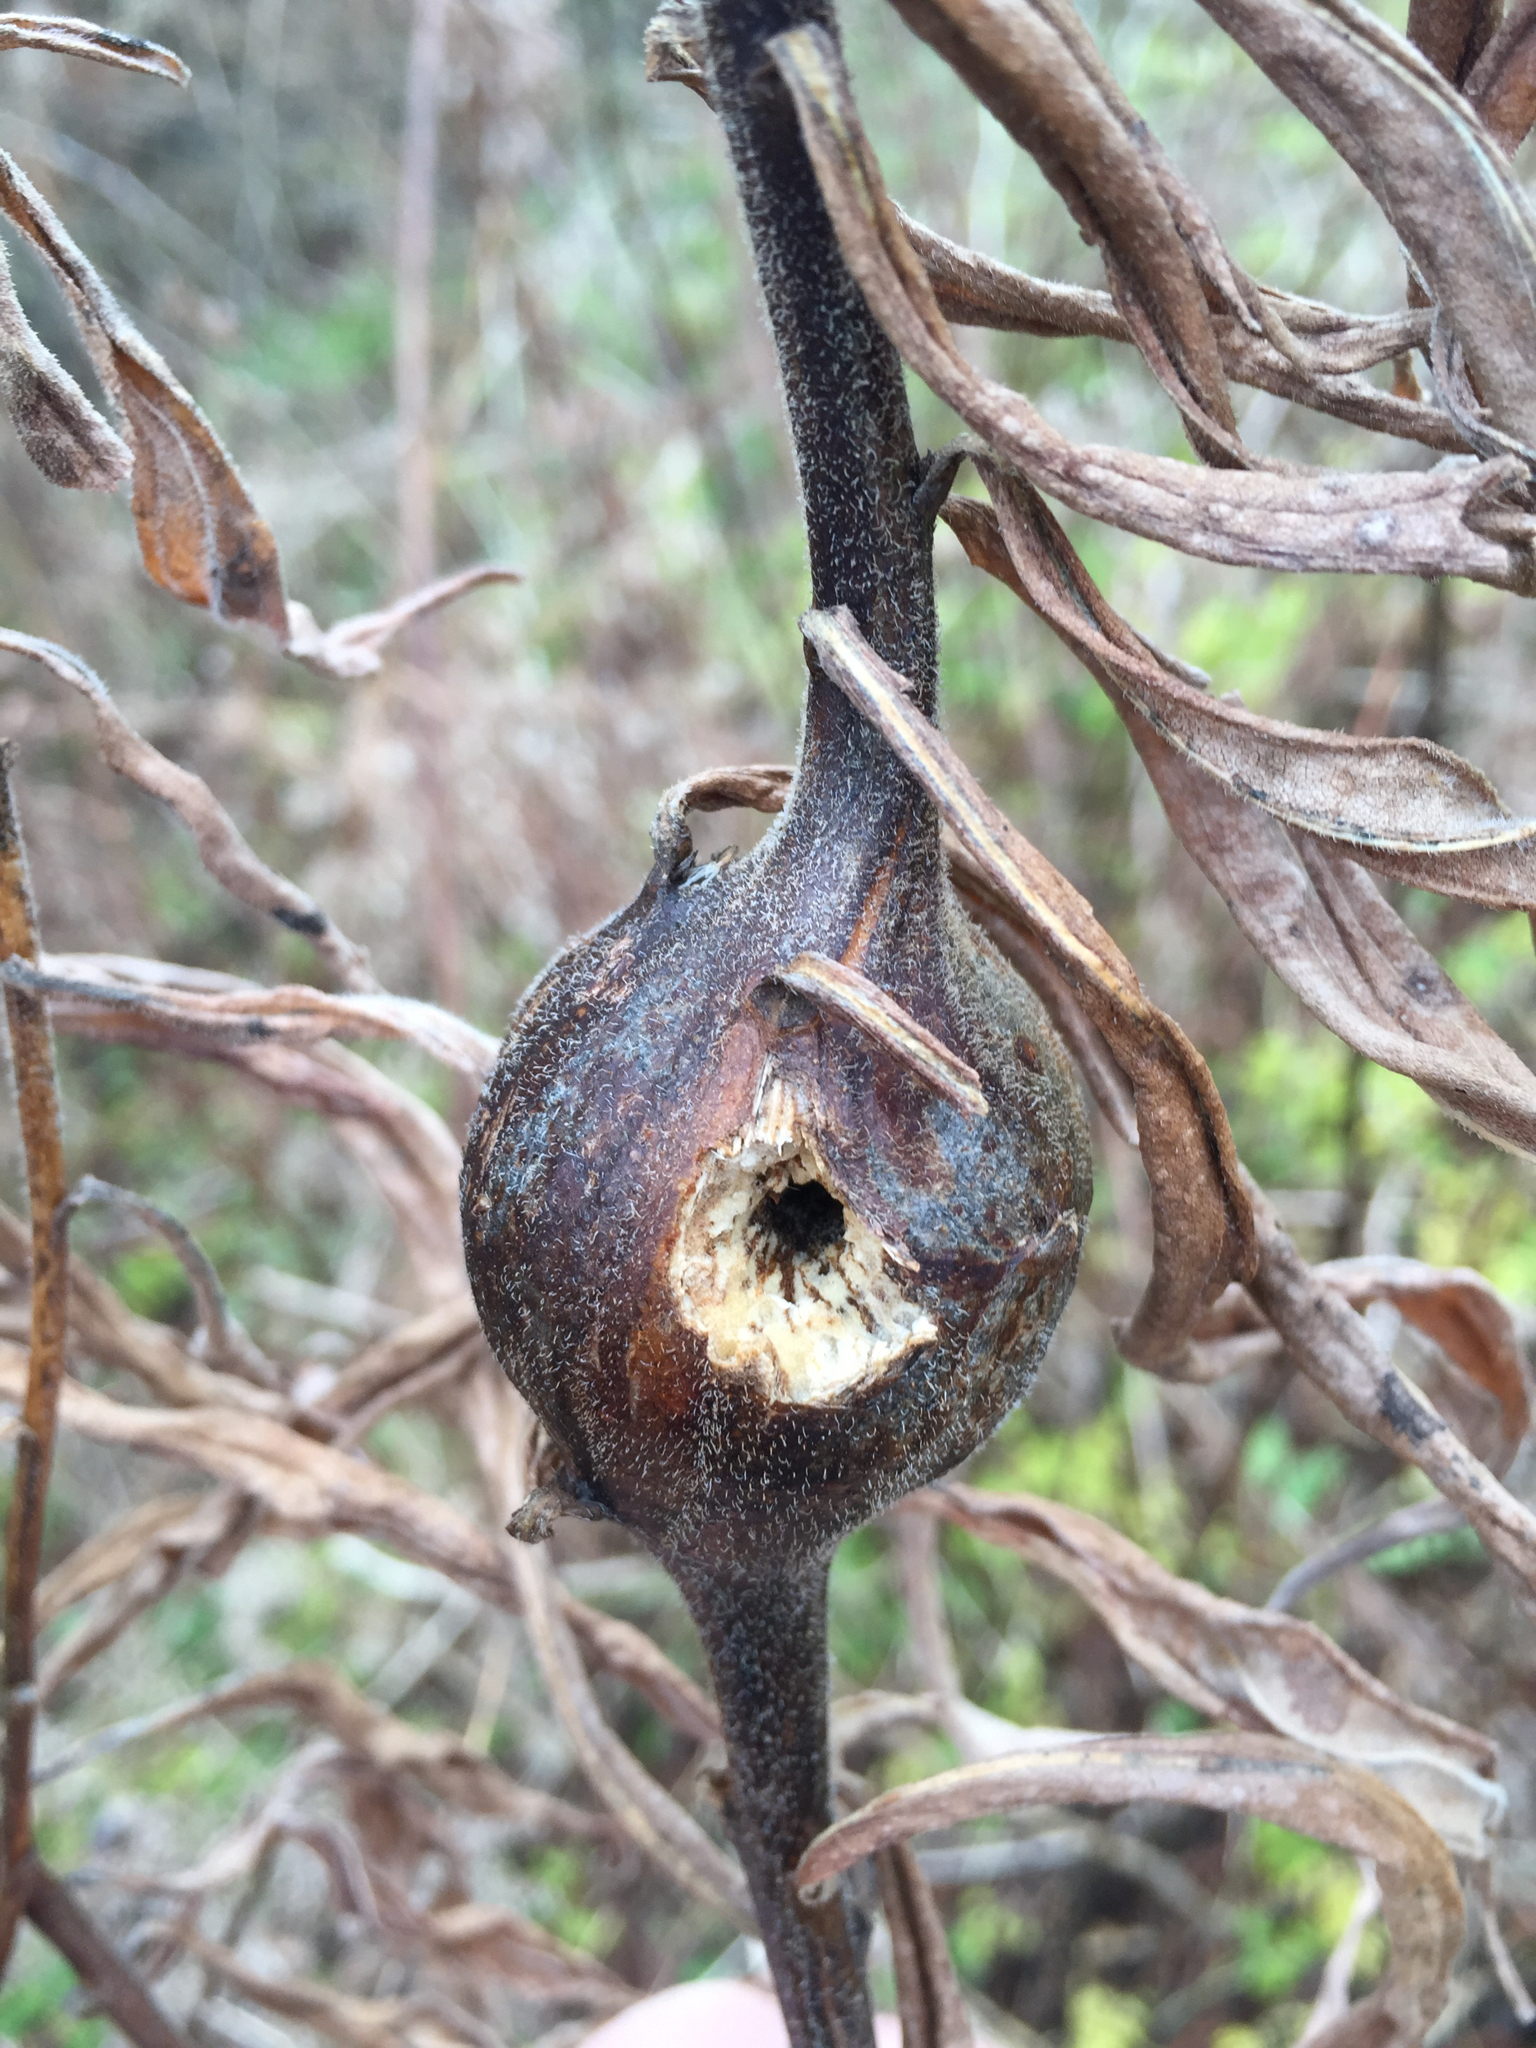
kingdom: Animalia
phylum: Arthropoda
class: Insecta
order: Diptera
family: Tephritidae
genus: Eurosta
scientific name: Eurosta solidaginis
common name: Goldenrod gall fly
